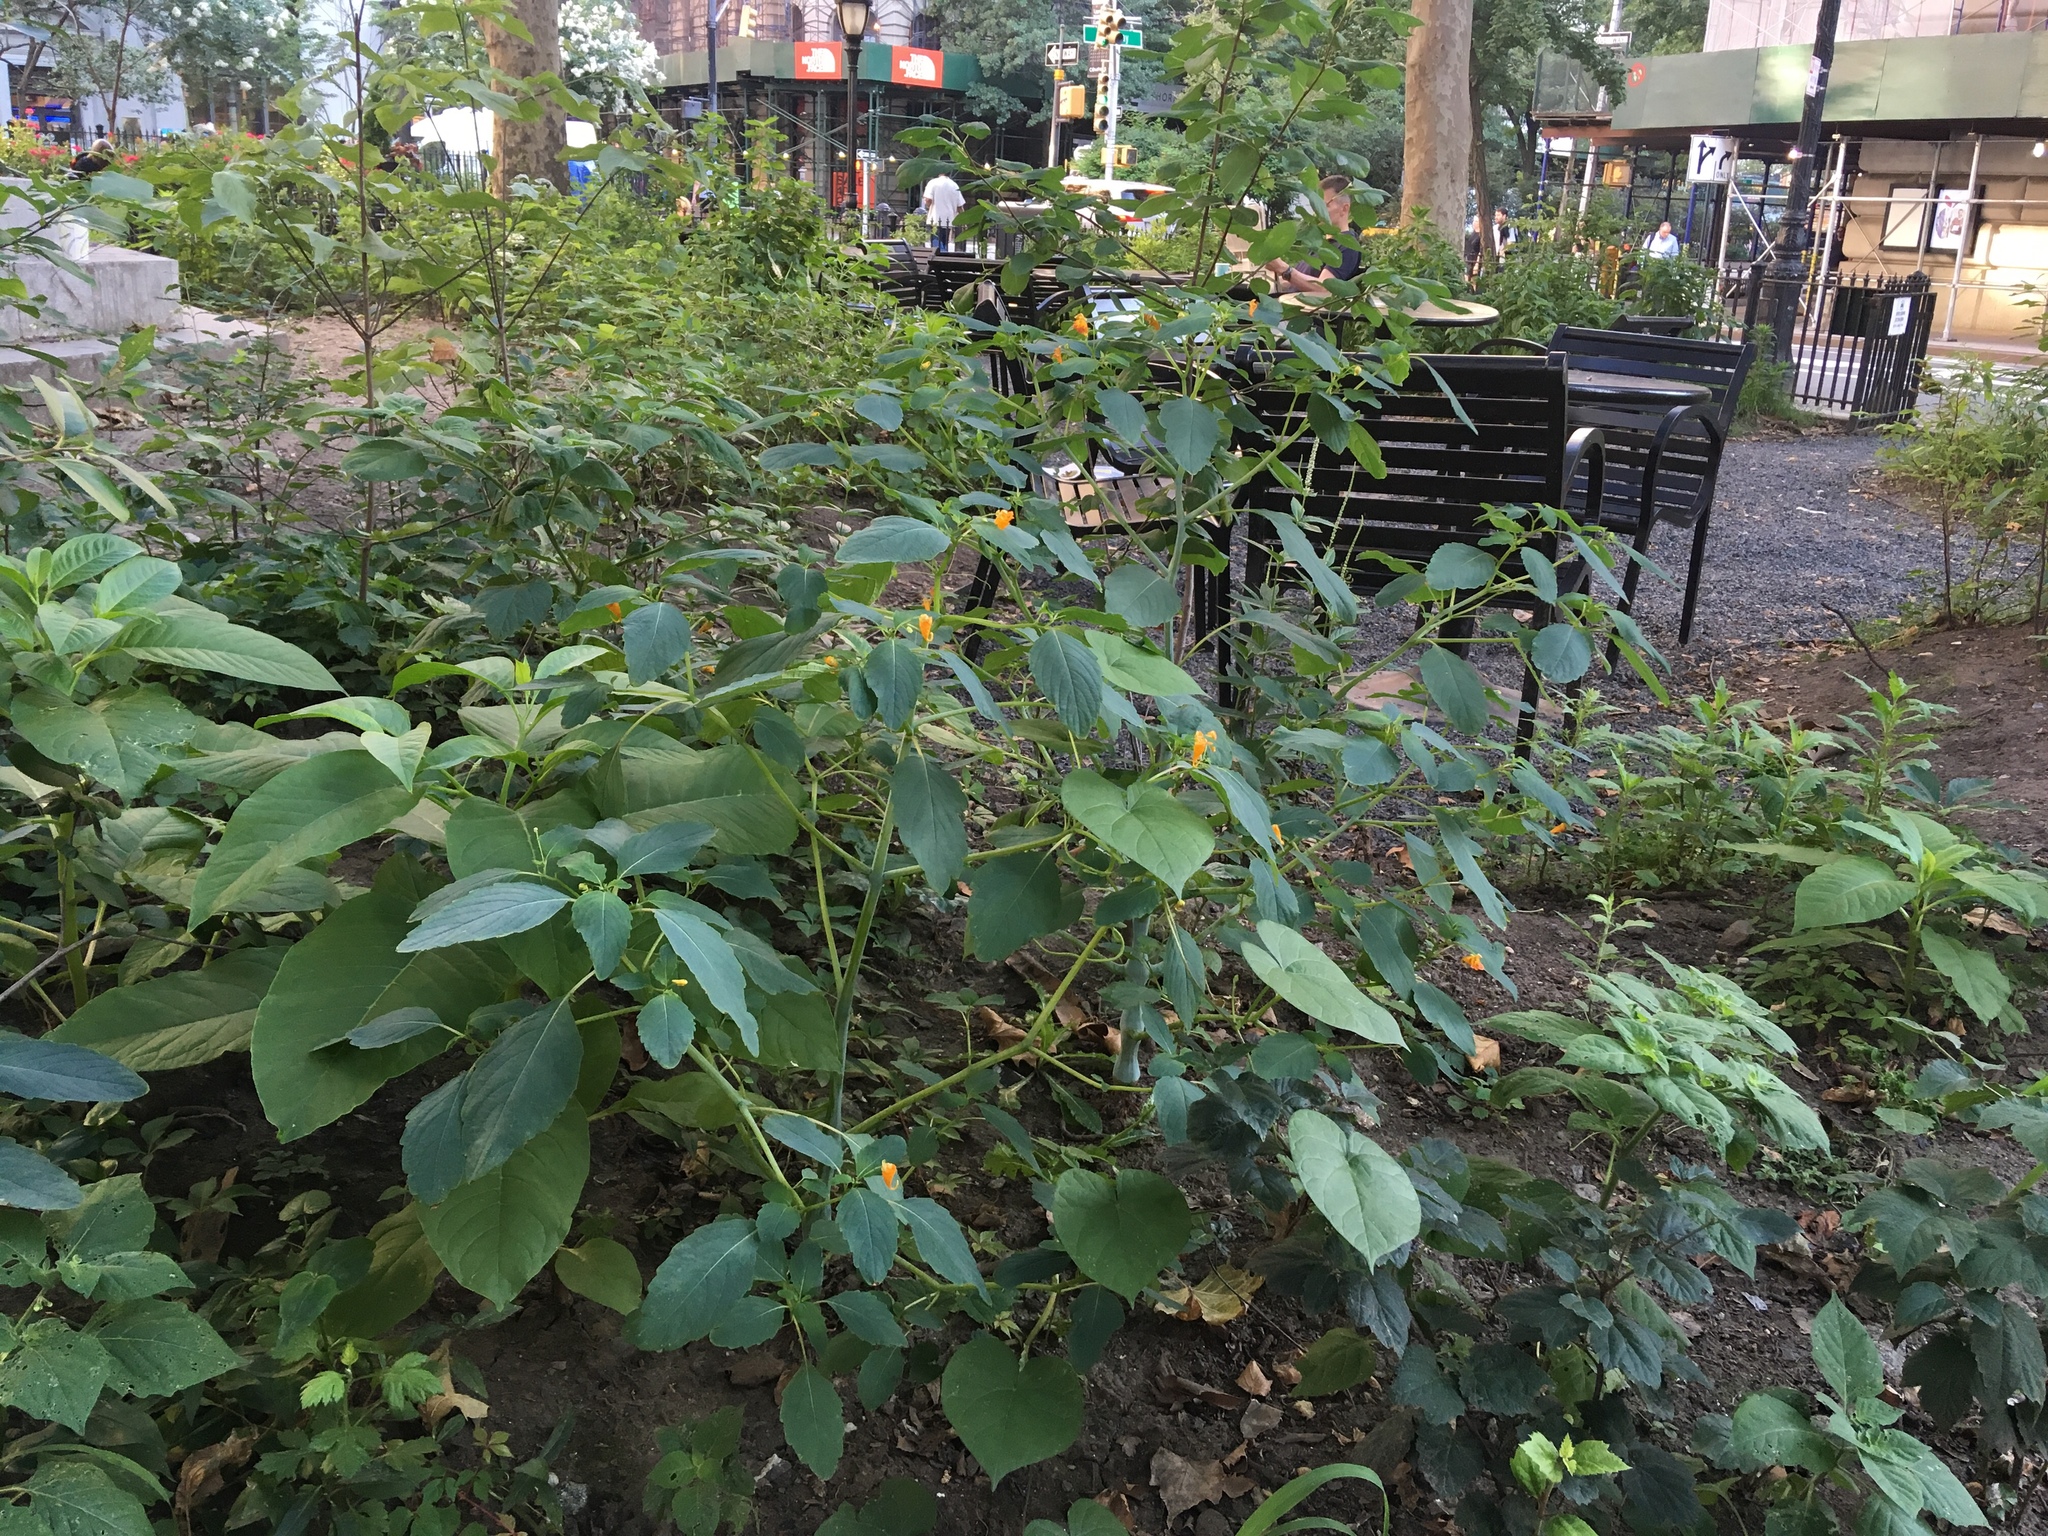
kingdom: Plantae
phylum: Tracheophyta
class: Magnoliopsida
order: Ericales
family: Balsaminaceae
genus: Impatiens
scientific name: Impatiens capensis
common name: Orange balsam
